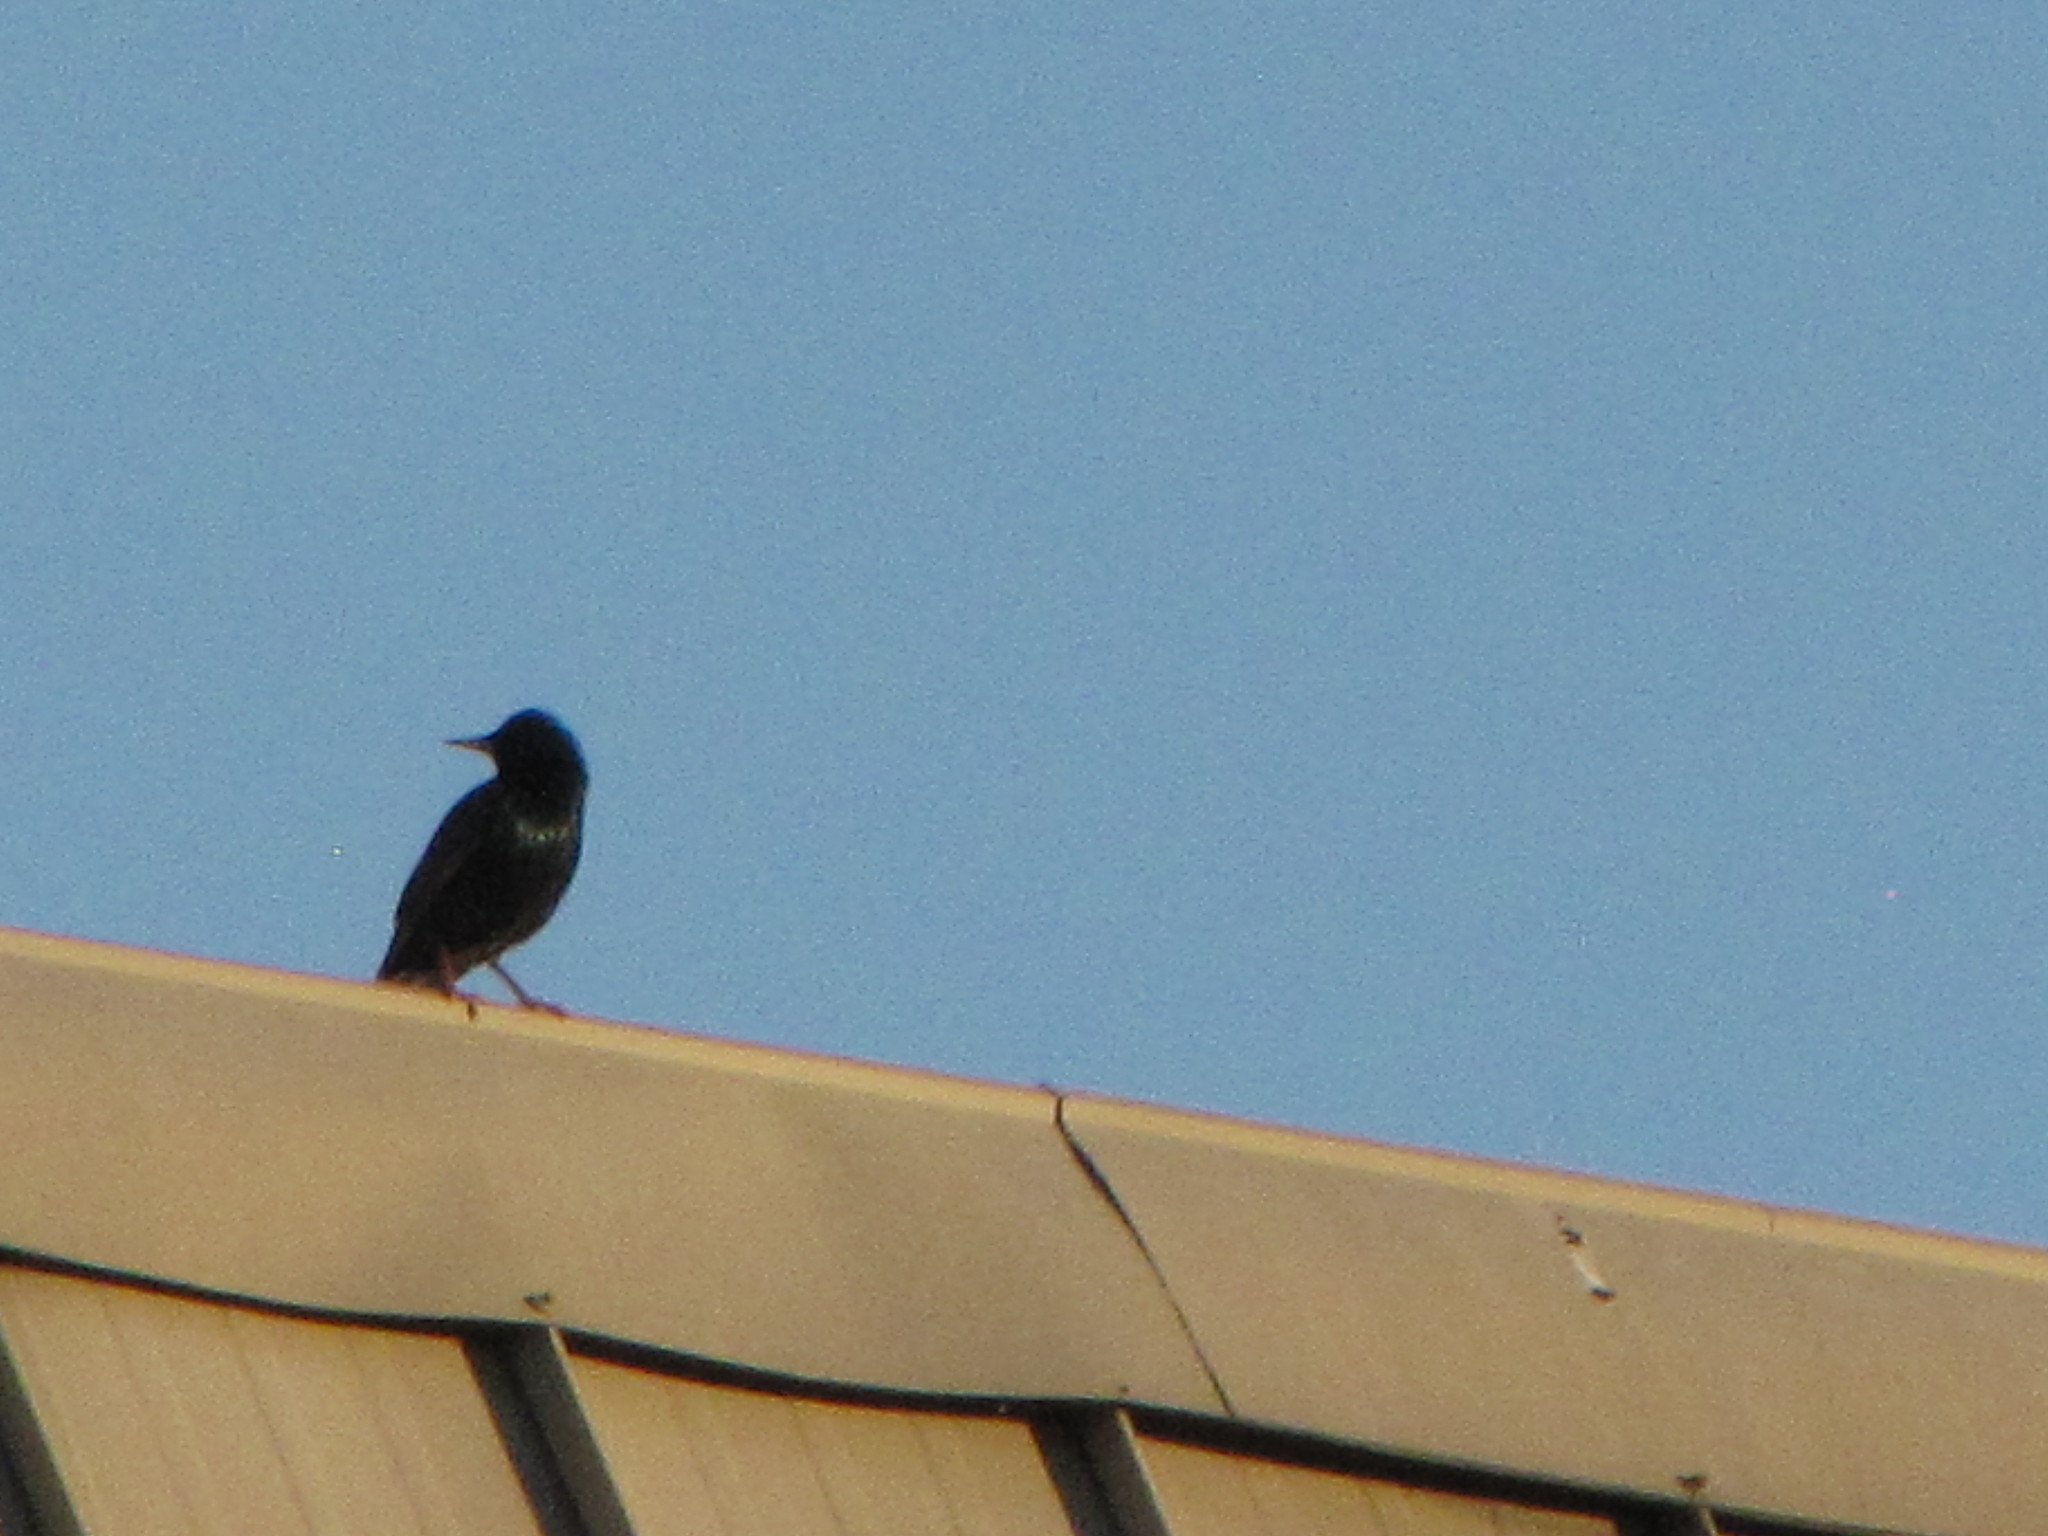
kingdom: Animalia
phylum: Chordata
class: Aves
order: Passeriformes
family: Sturnidae
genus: Sturnus
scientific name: Sturnus vulgaris
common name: Common starling
